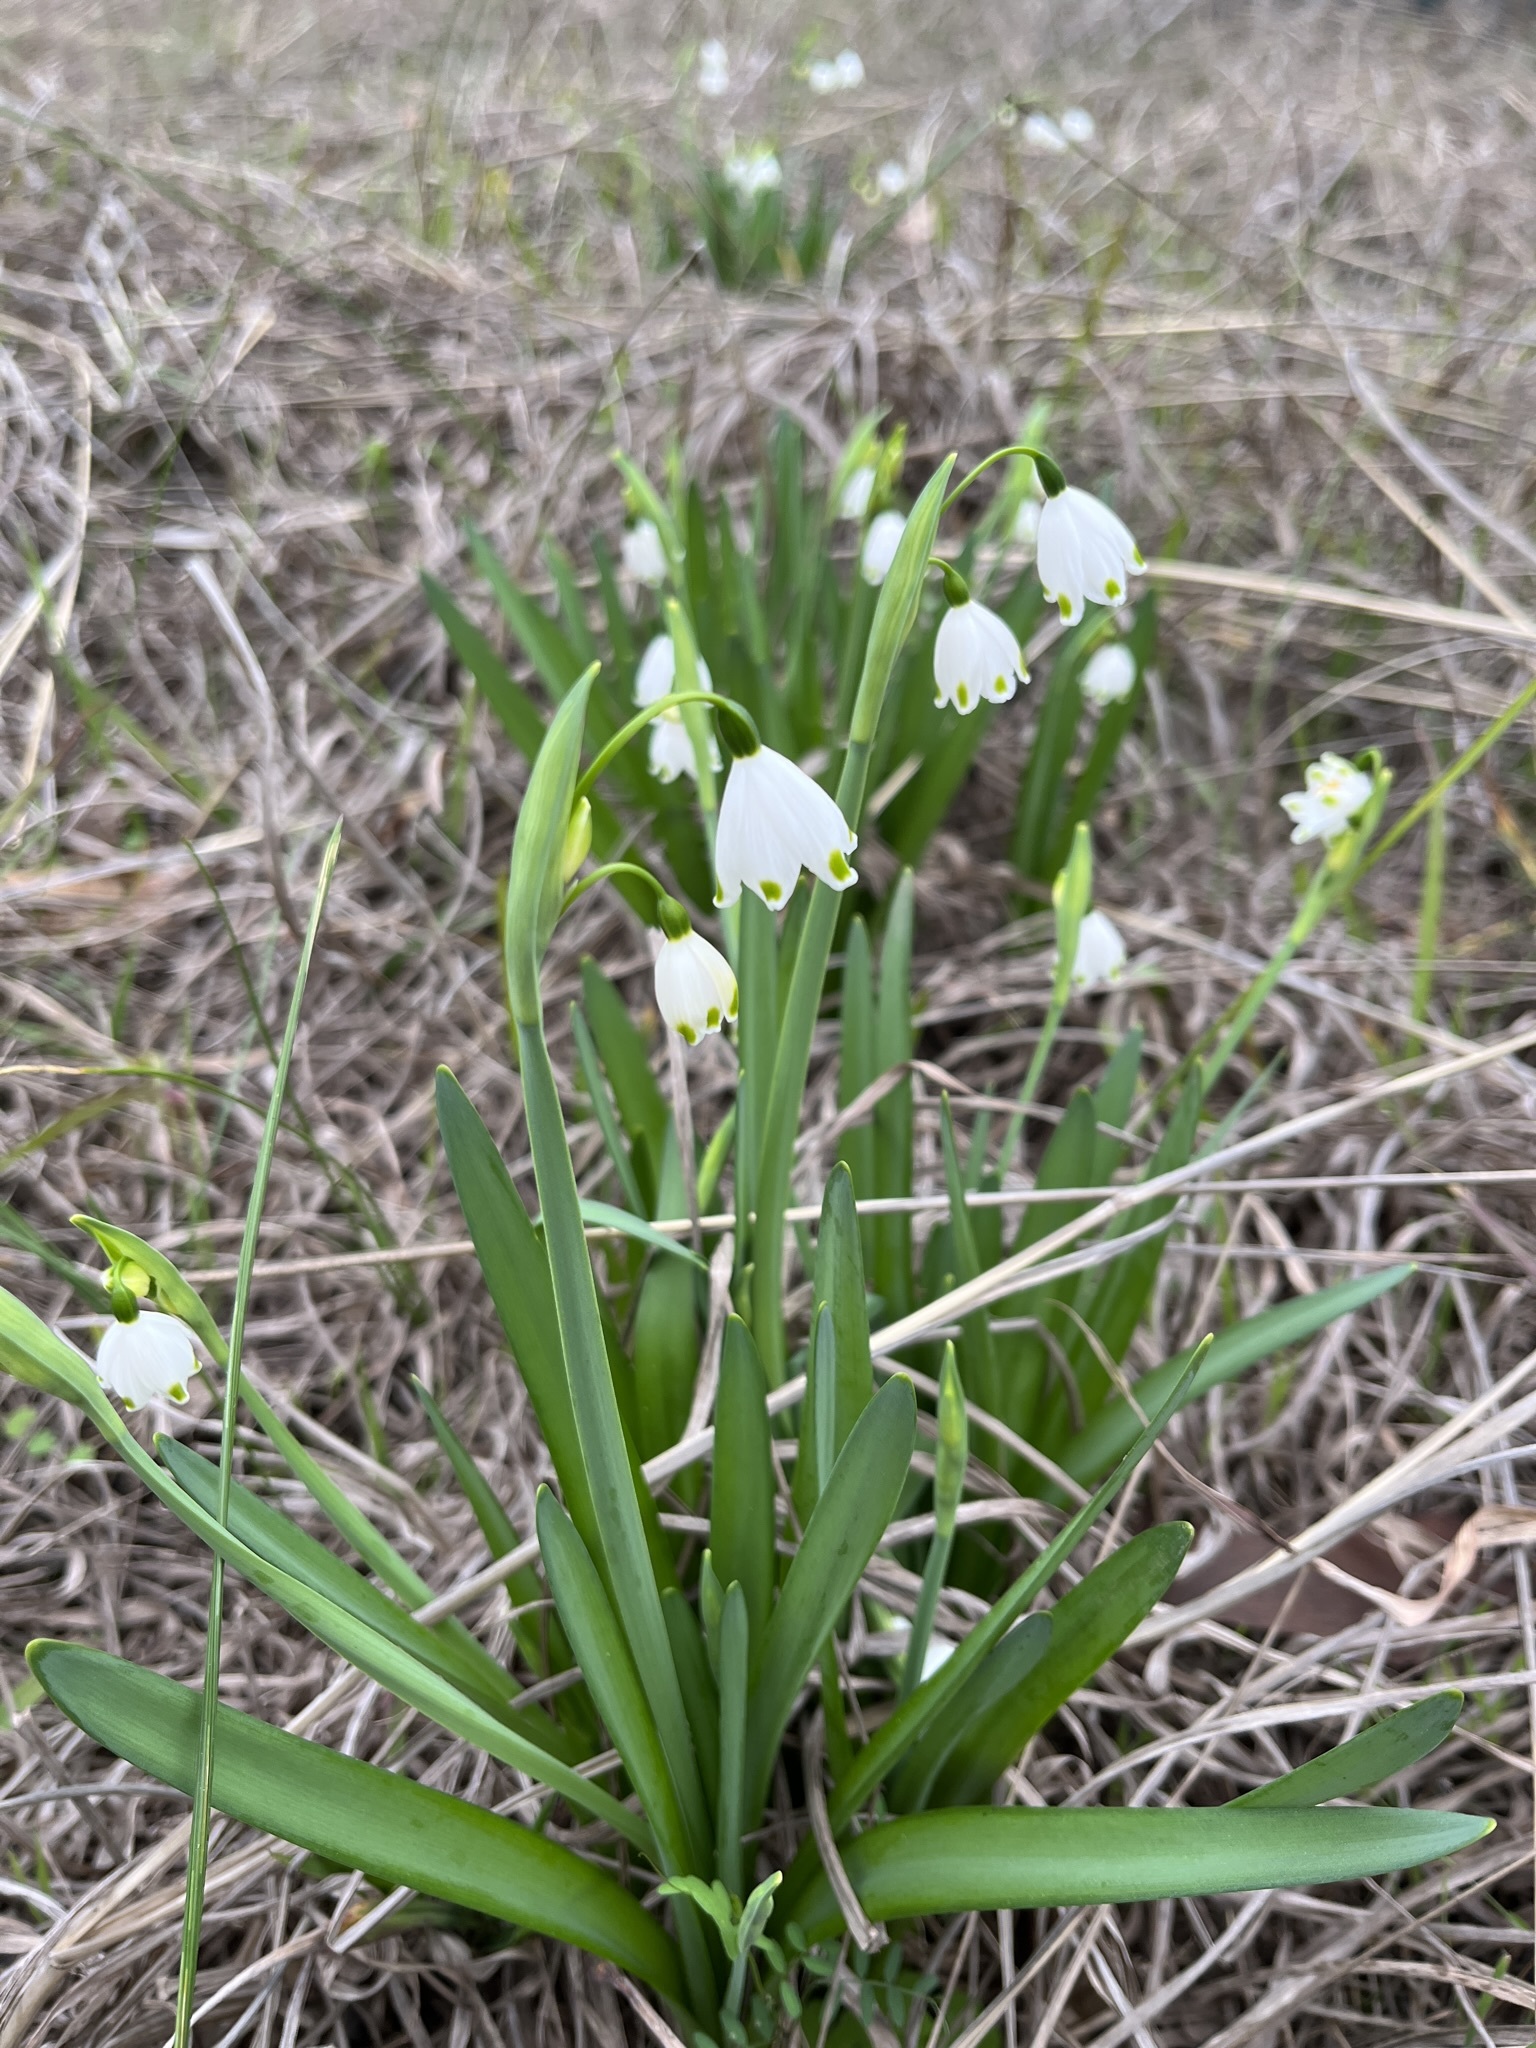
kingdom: Plantae
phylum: Tracheophyta
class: Liliopsida
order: Asparagales
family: Amaryllidaceae
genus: Leucojum
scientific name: Leucojum aestivum
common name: Summer snowflake
